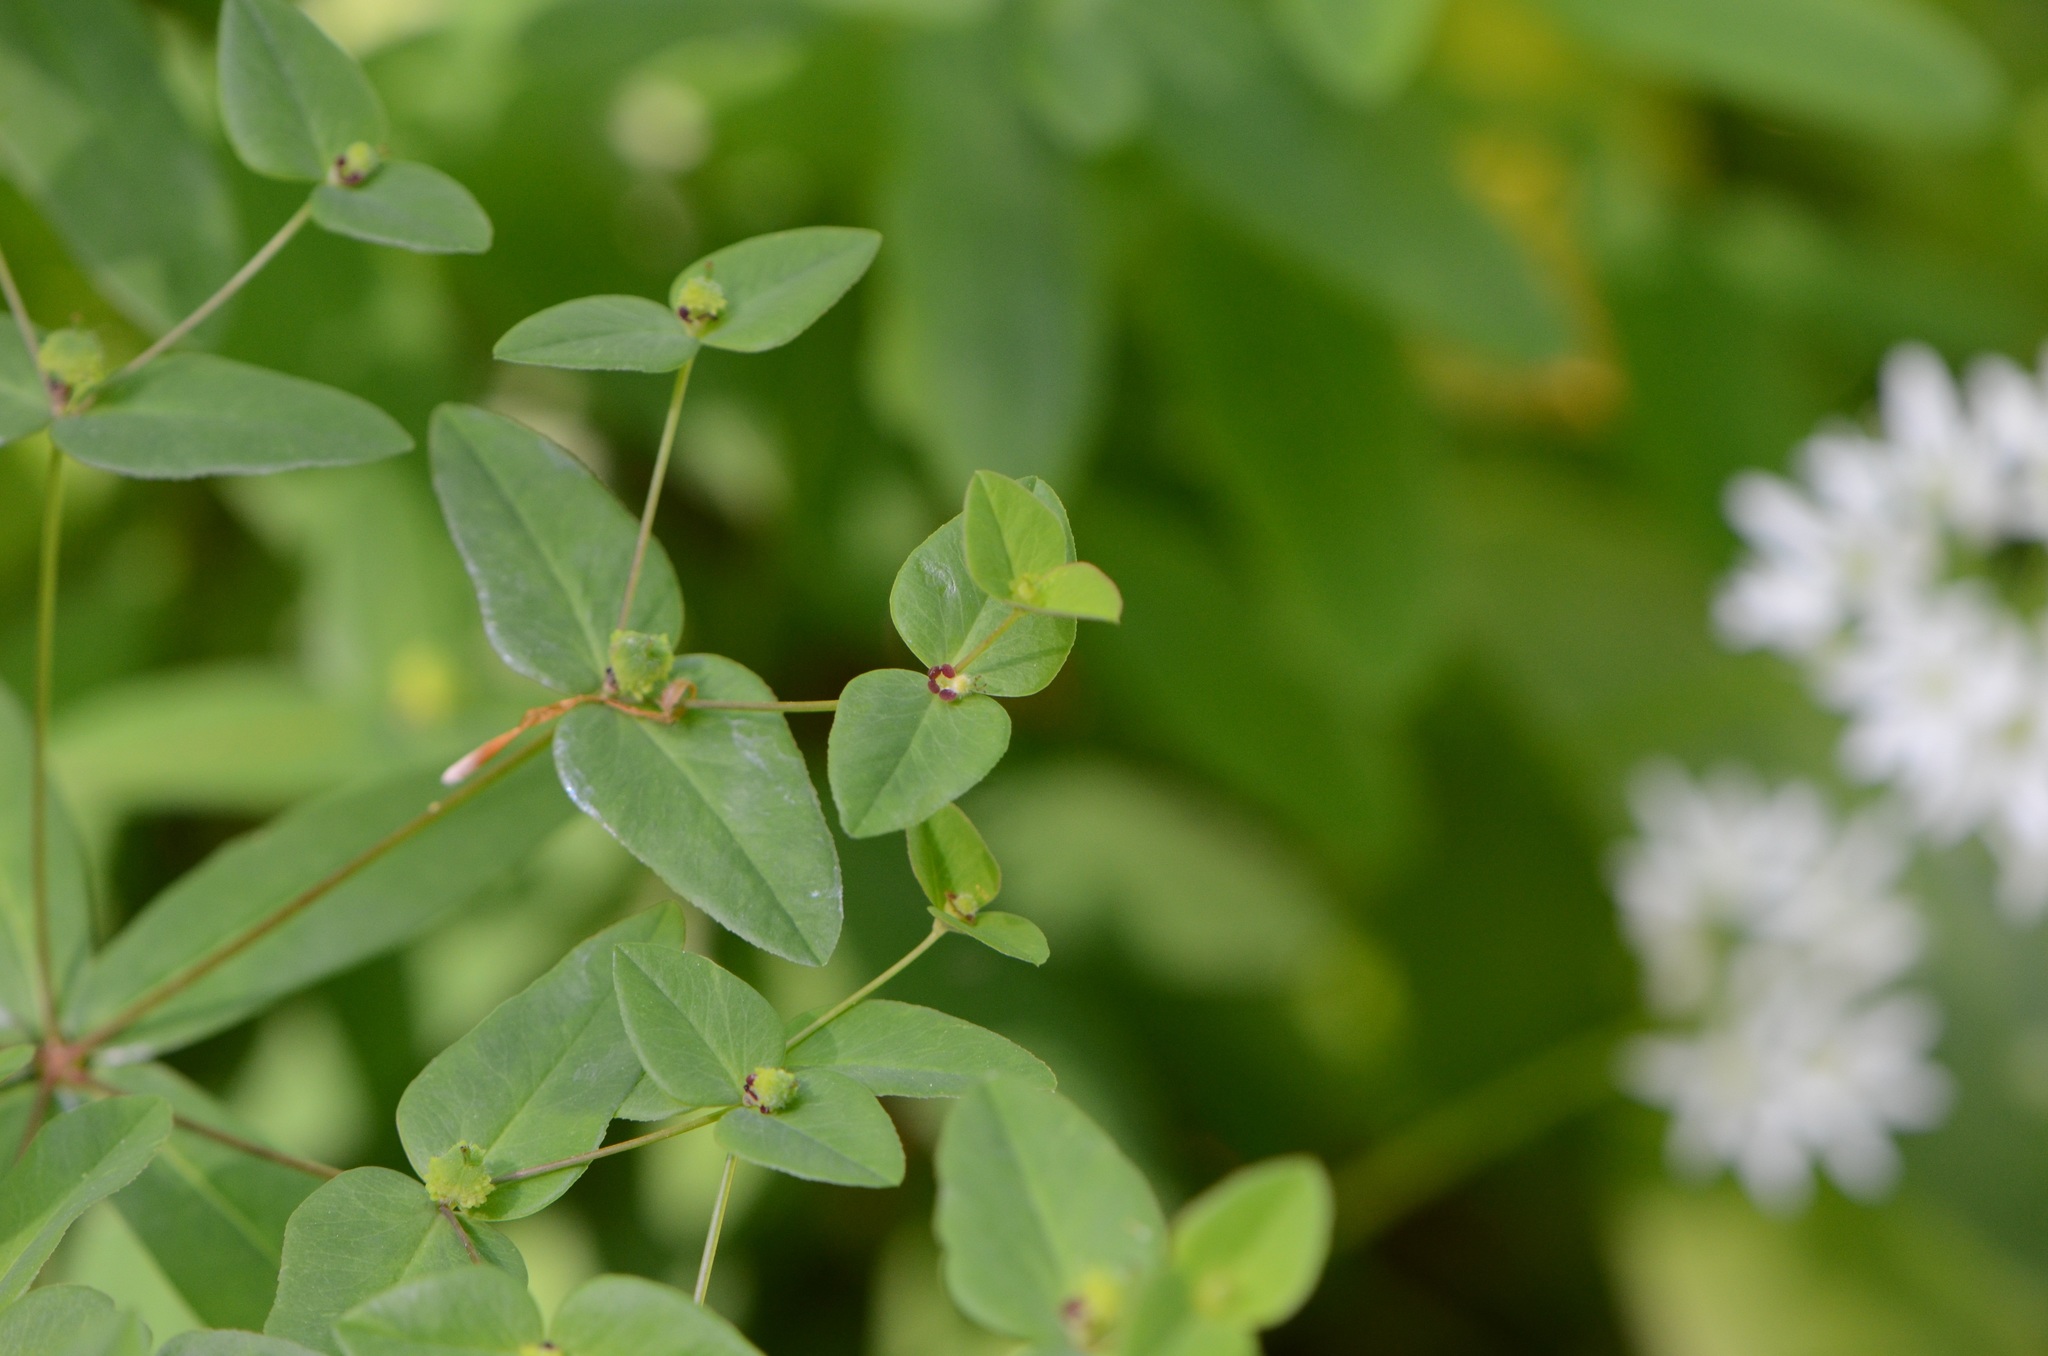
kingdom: Plantae
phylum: Tracheophyta
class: Magnoliopsida
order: Malpighiales
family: Euphorbiaceae
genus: Euphorbia
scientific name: Euphorbia dulcis
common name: Sweet spurge
